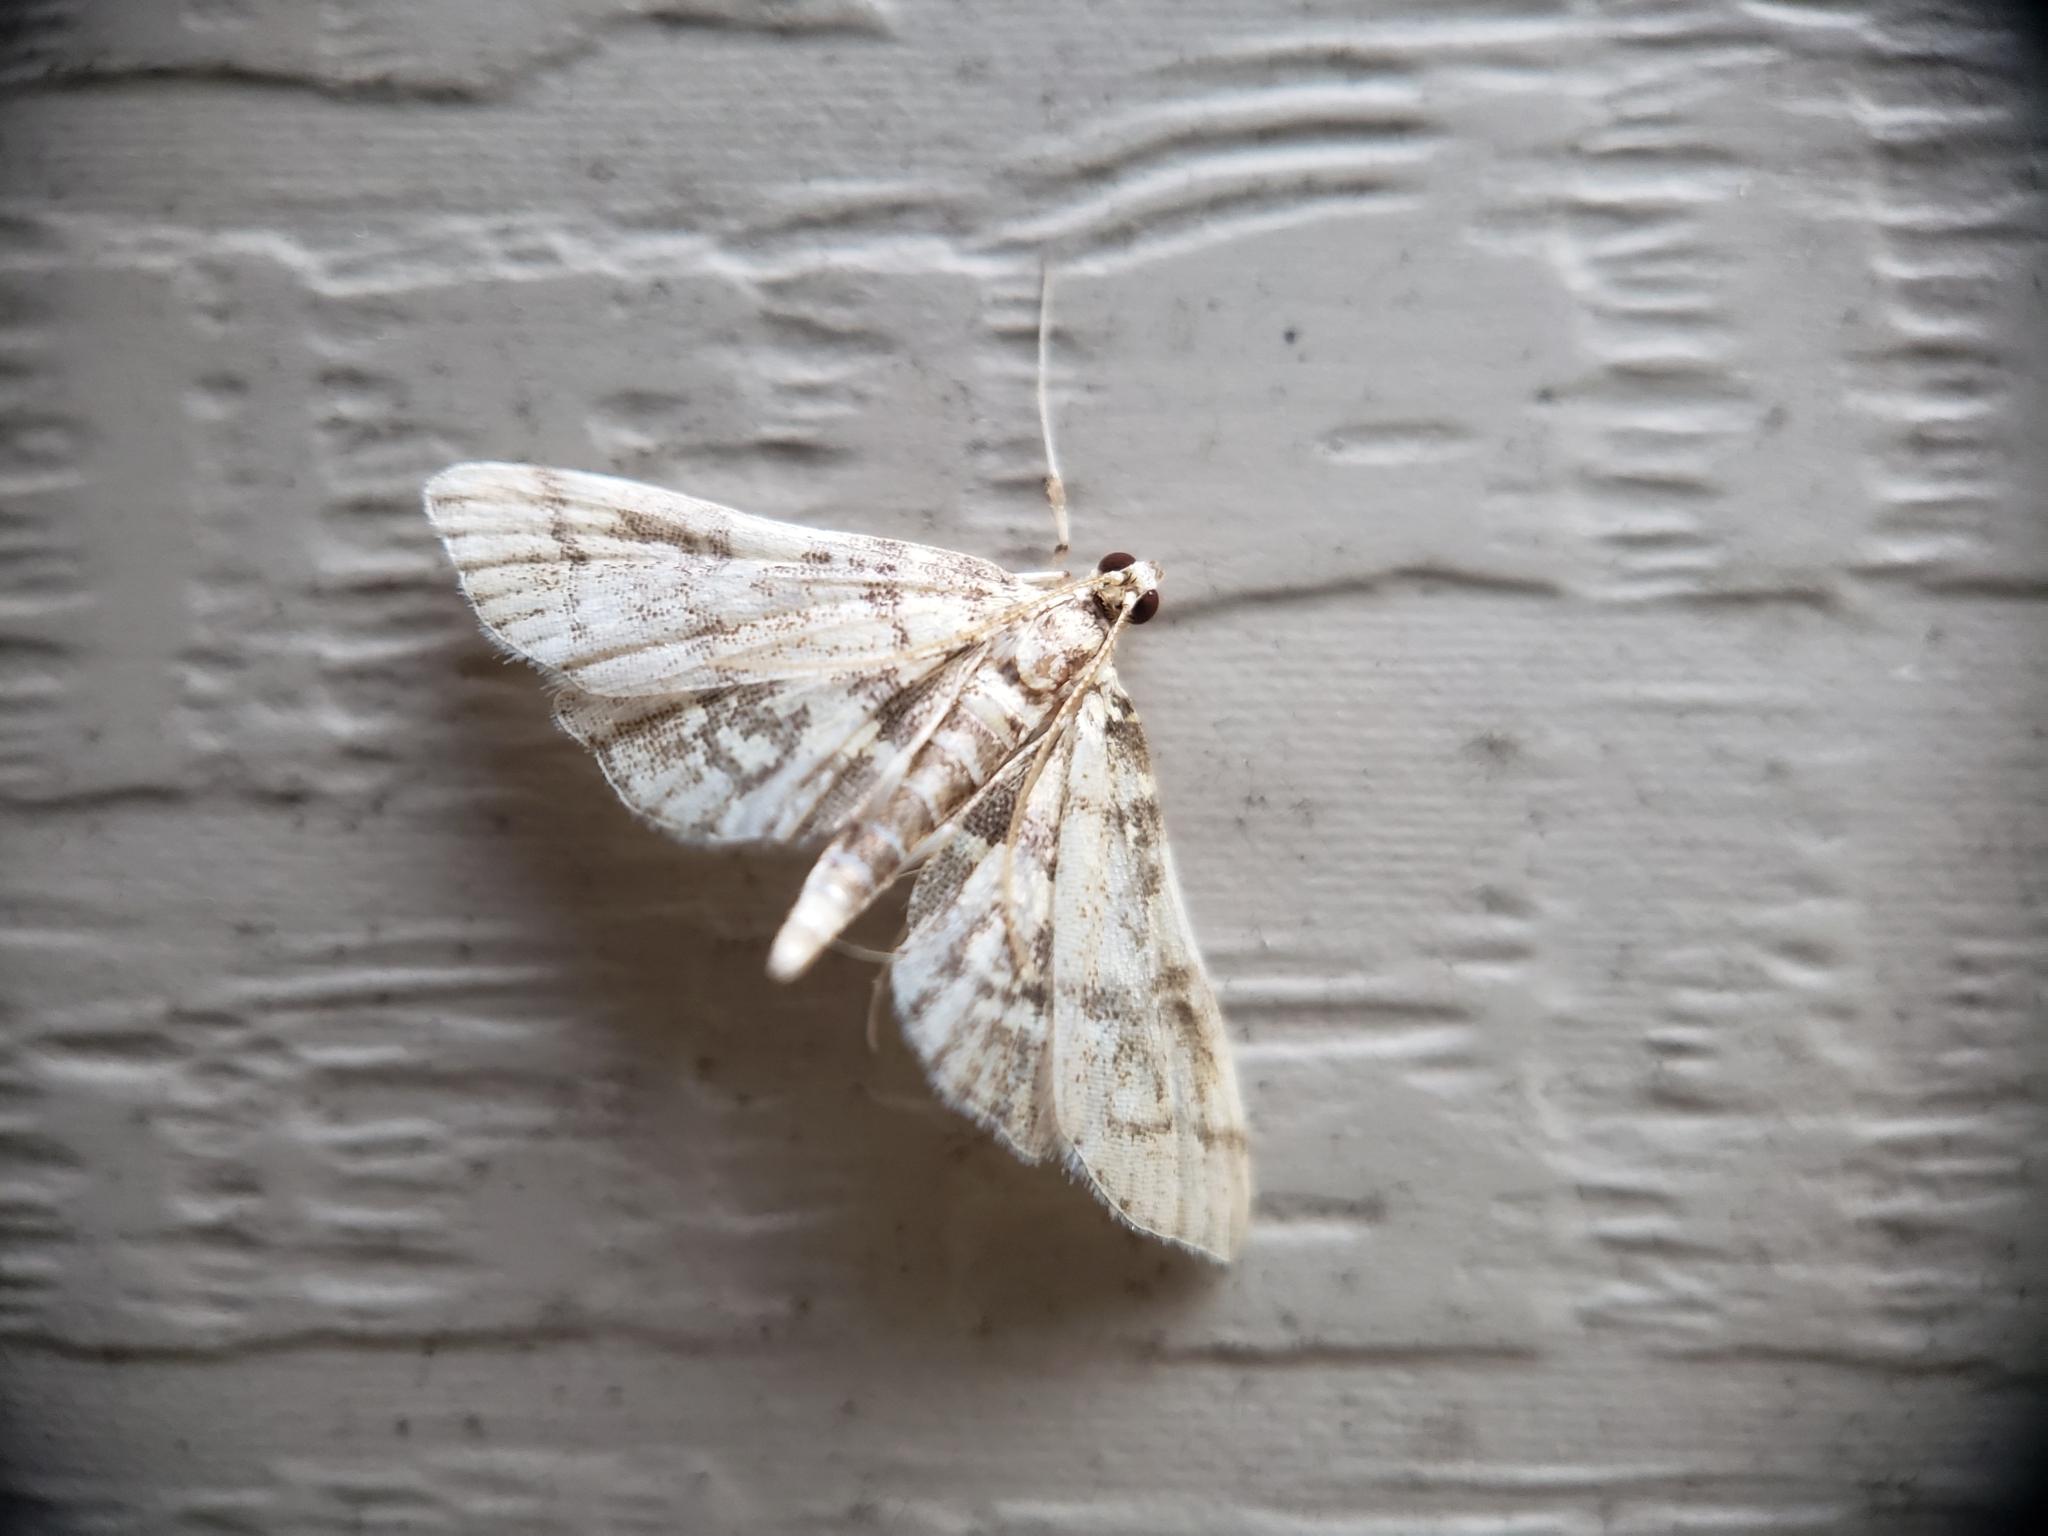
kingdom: Animalia
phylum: Arthropoda
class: Insecta
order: Lepidoptera
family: Crambidae
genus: Apogeshna
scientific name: Apogeshna stenialis
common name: Checkered apogeshna moth
